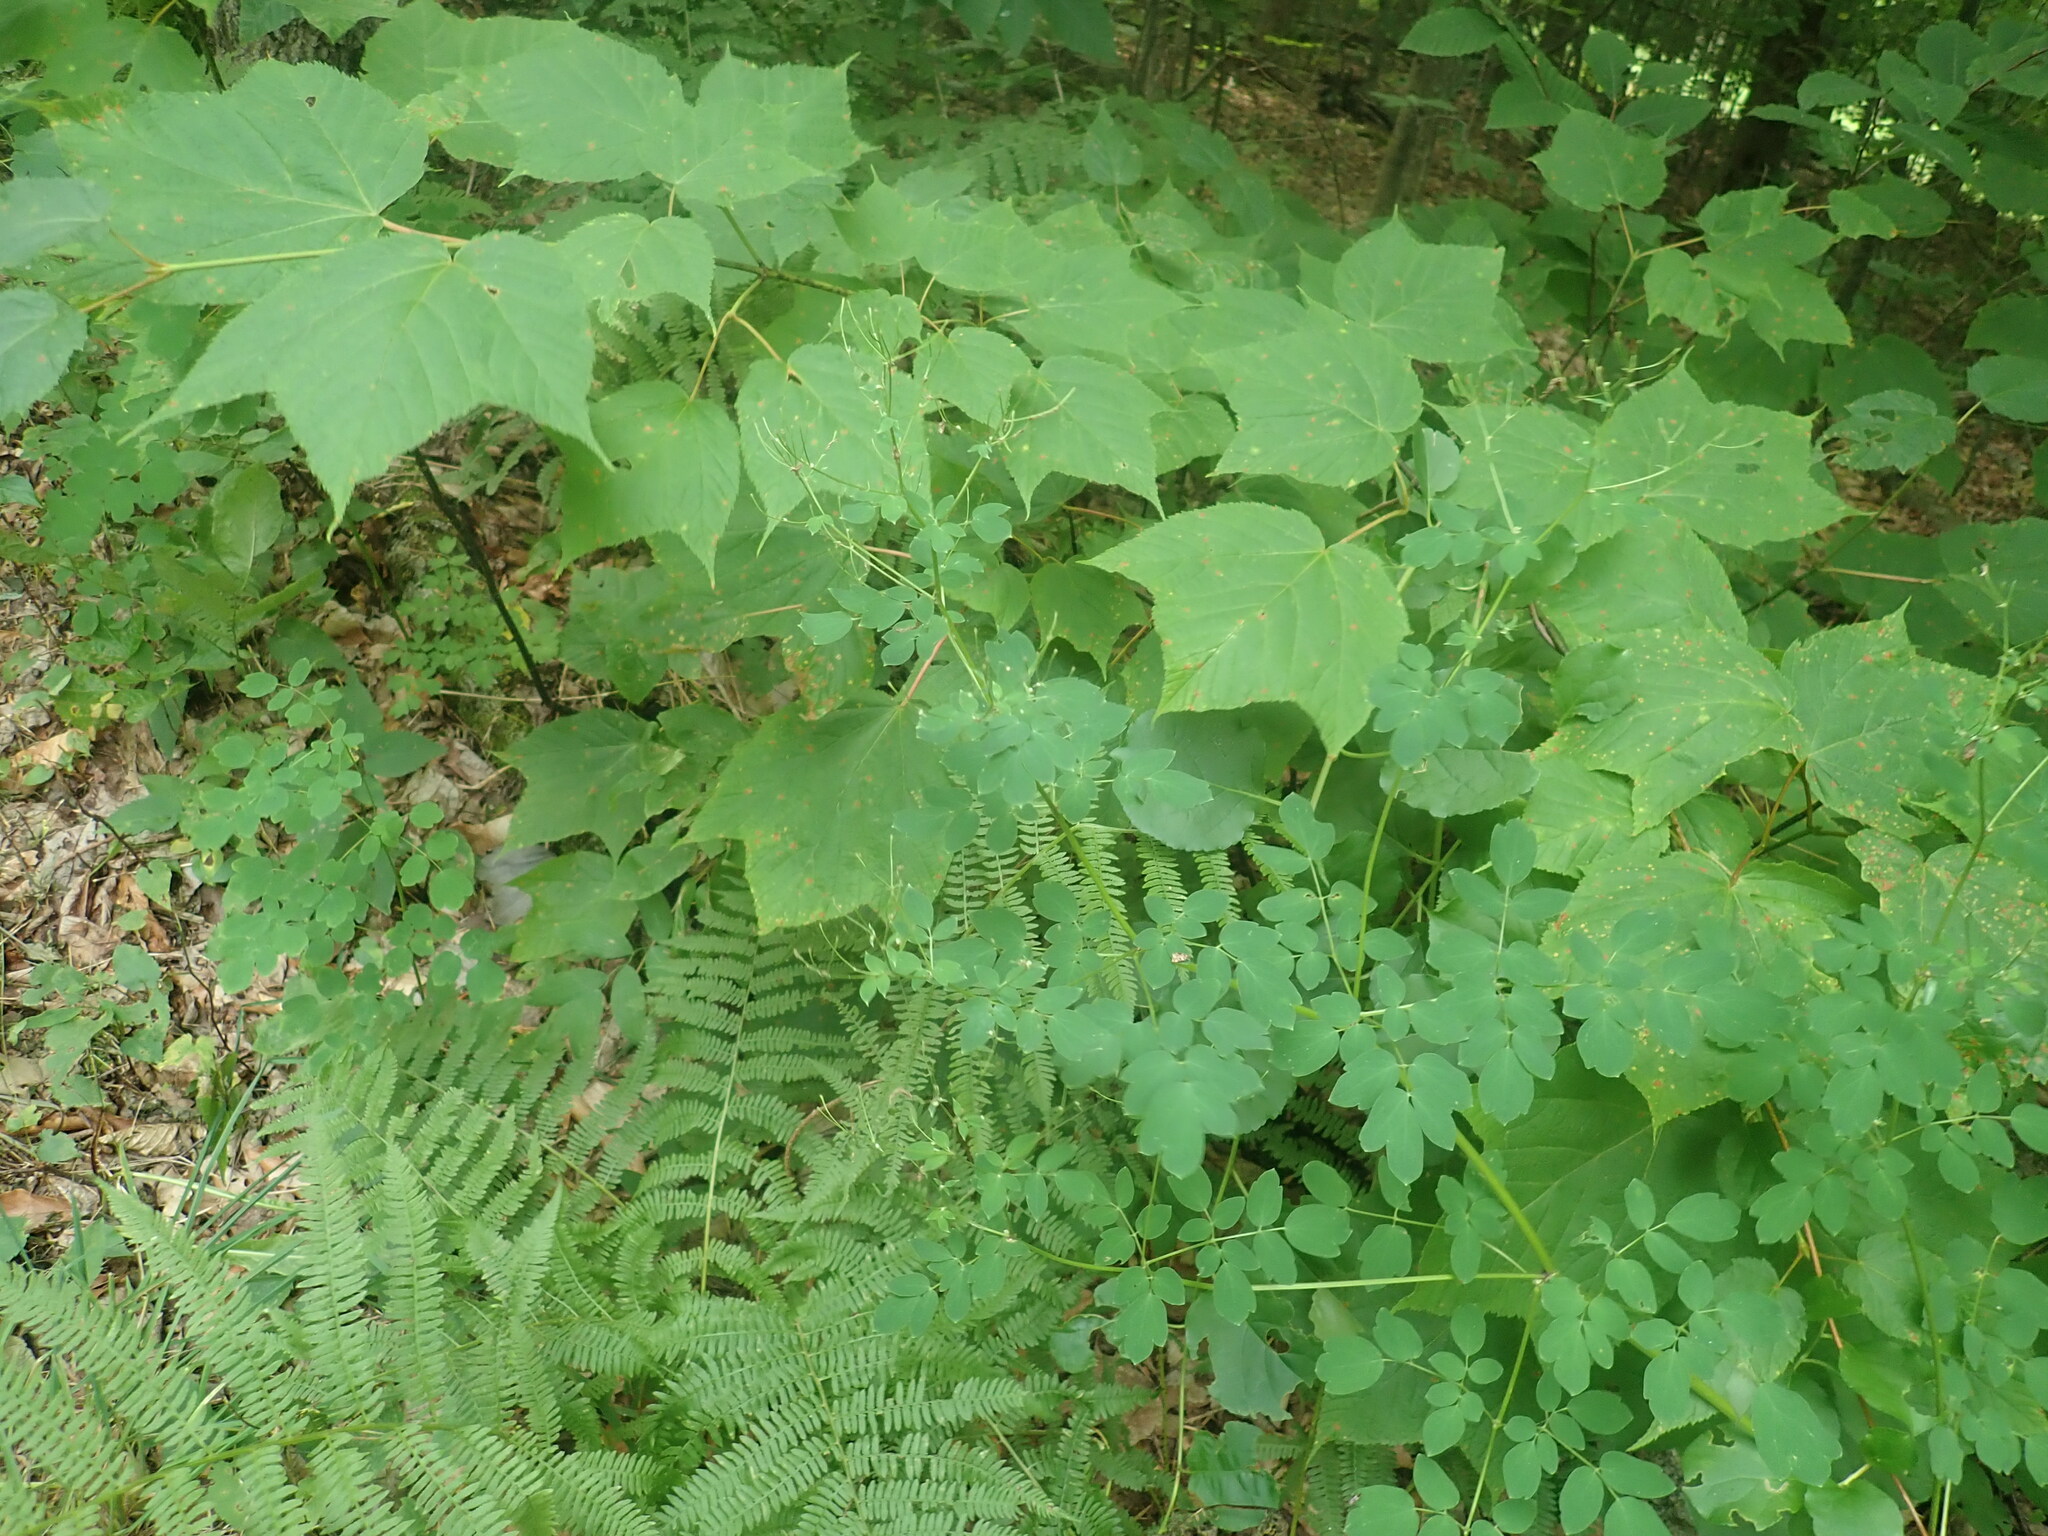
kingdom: Plantae
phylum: Tracheophyta
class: Magnoliopsida
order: Ranunculales
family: Ranunculaceae
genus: Thalictrum
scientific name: Thalictrum pubescens
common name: King-of-the-meadow
